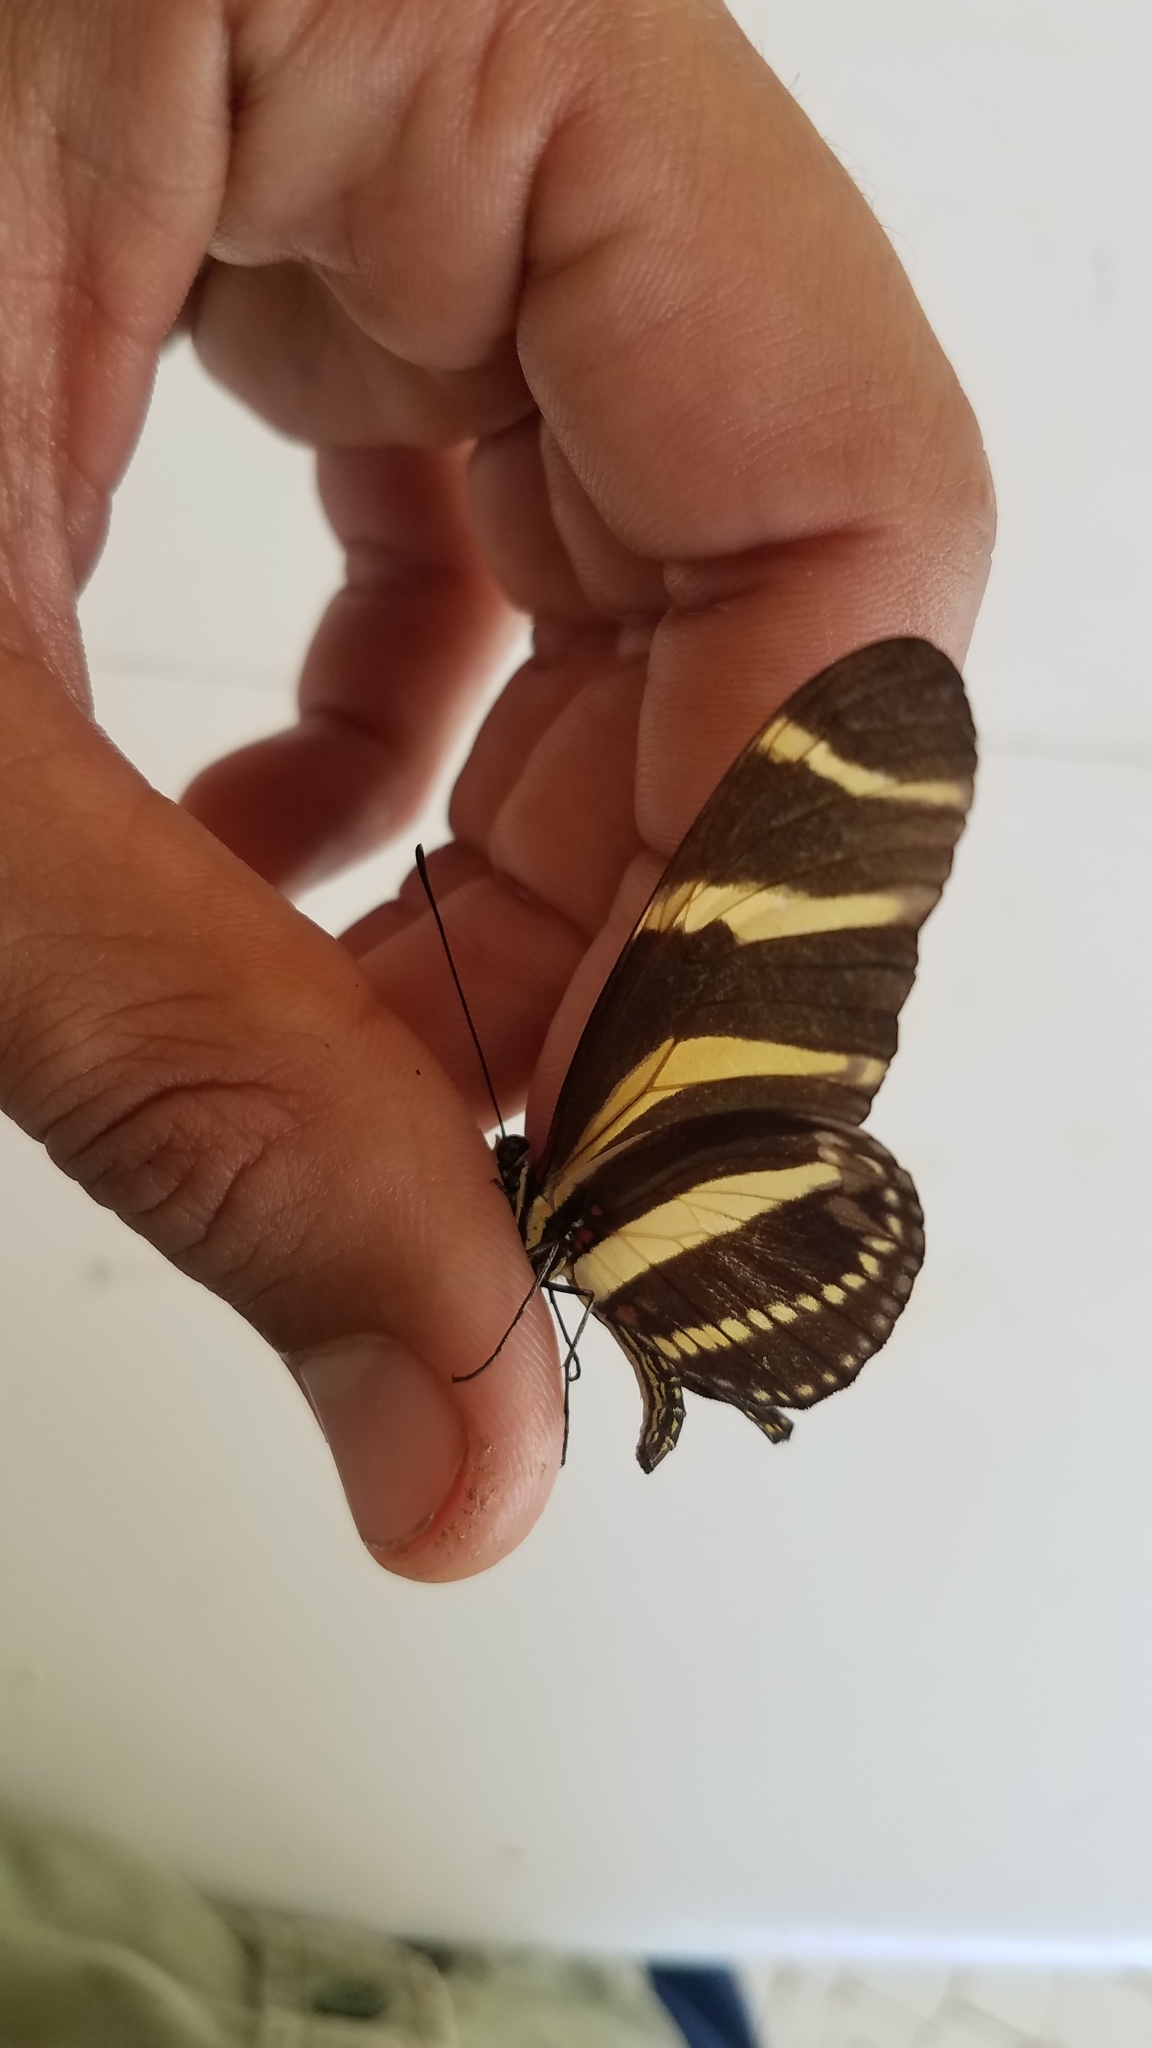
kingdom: Animalia
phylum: Arthropoda
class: Insecta
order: Lepidoptera
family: Nymphalidae
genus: Heliconius
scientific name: Heliconius charithonia
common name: Zebra long wing
